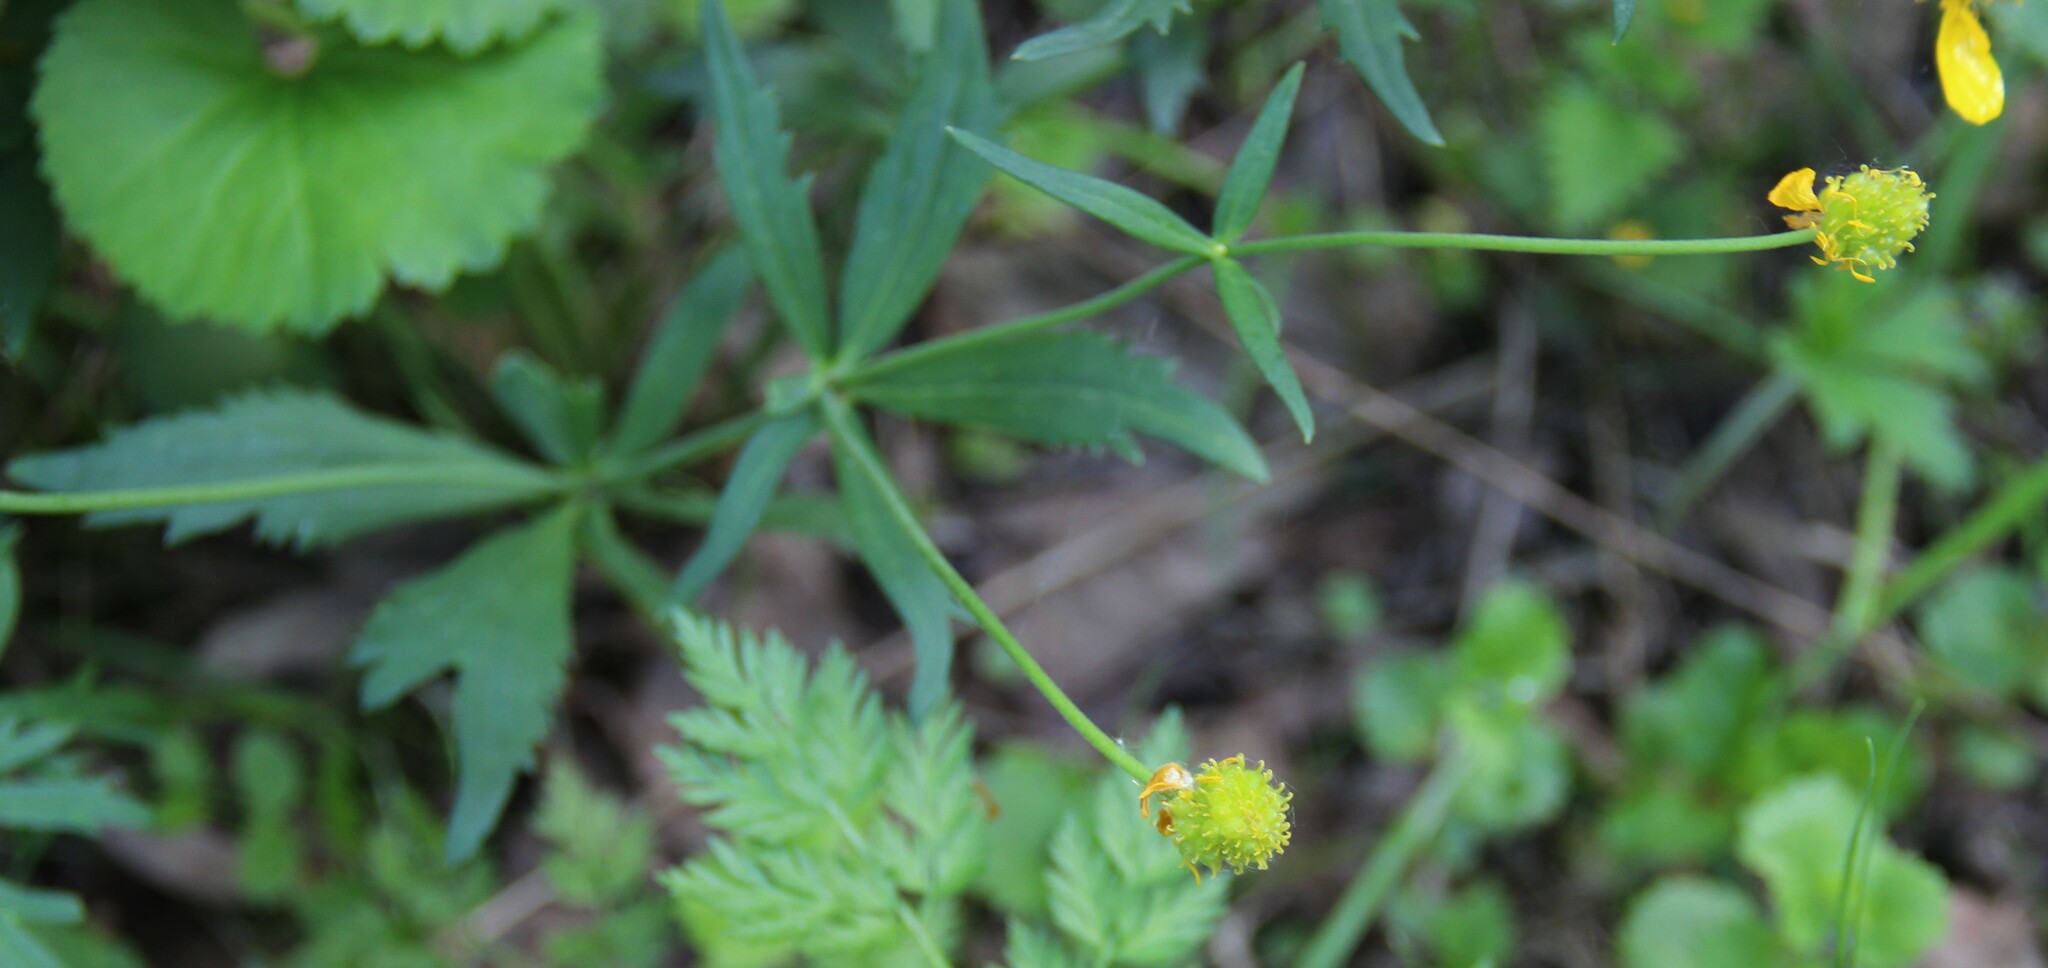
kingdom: Plantae
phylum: Tracheophyta
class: Magnoliopsida
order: Ranunculales
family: Ranunculaceae
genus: Ranunculus
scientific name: Ranunculus cassubicus
